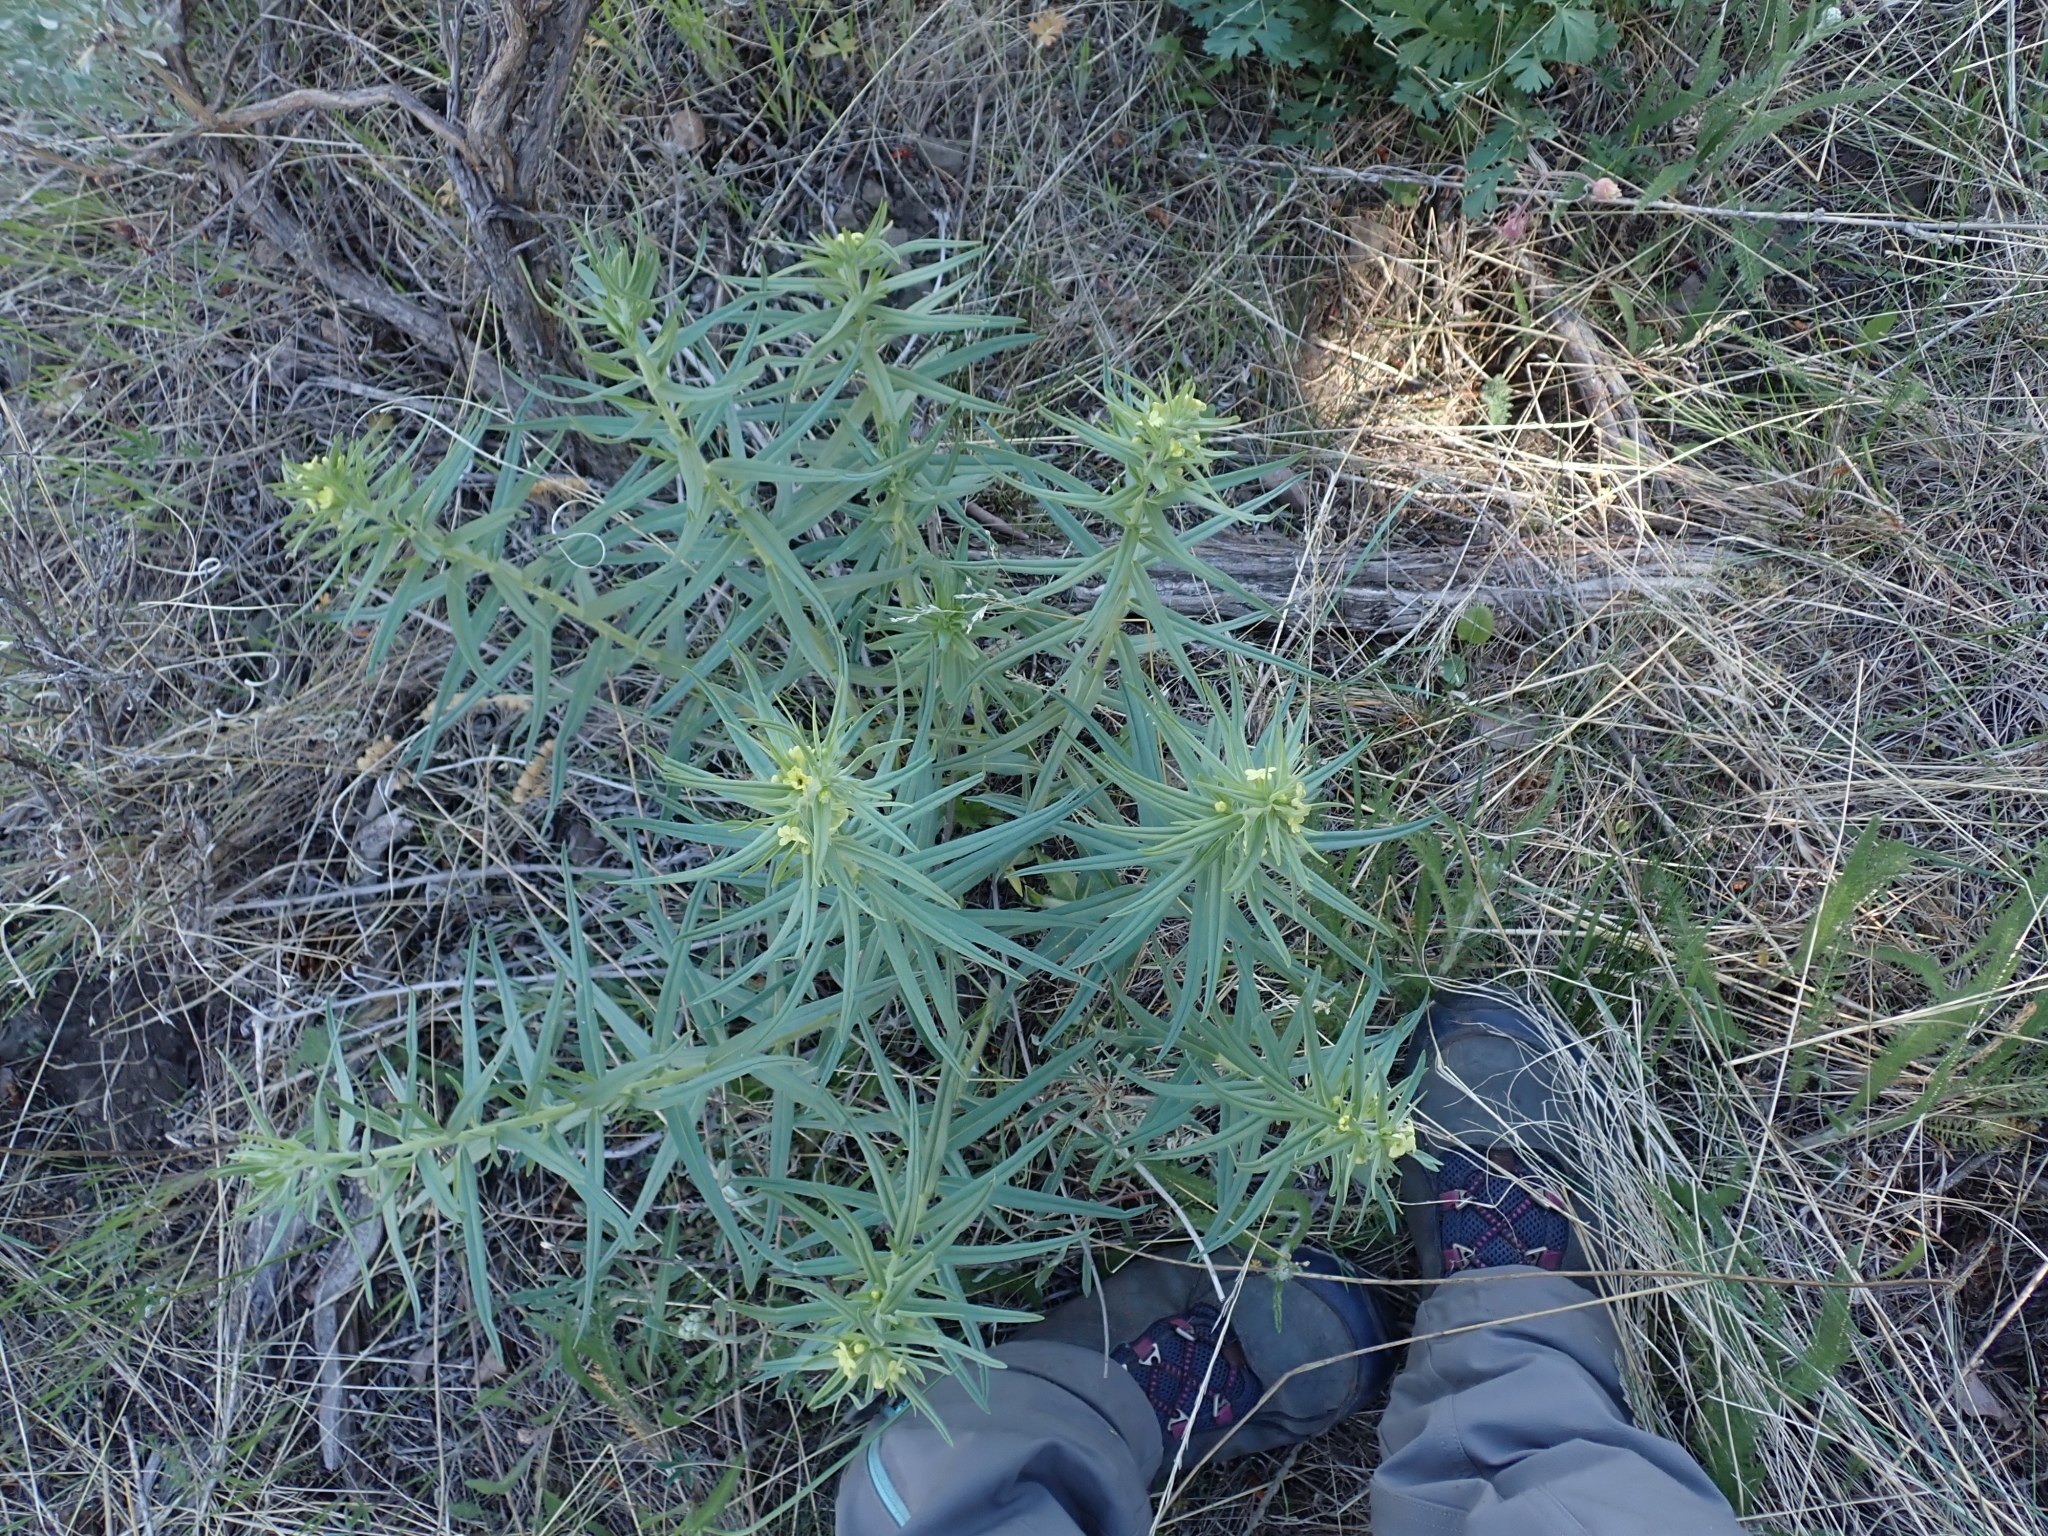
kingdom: Plantae
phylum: Tracheophyta
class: Magnoliopsida
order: Boraginales
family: Boraginaceae
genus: Lithospermum
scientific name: Lithospermum ruderale
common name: Western gromwell
